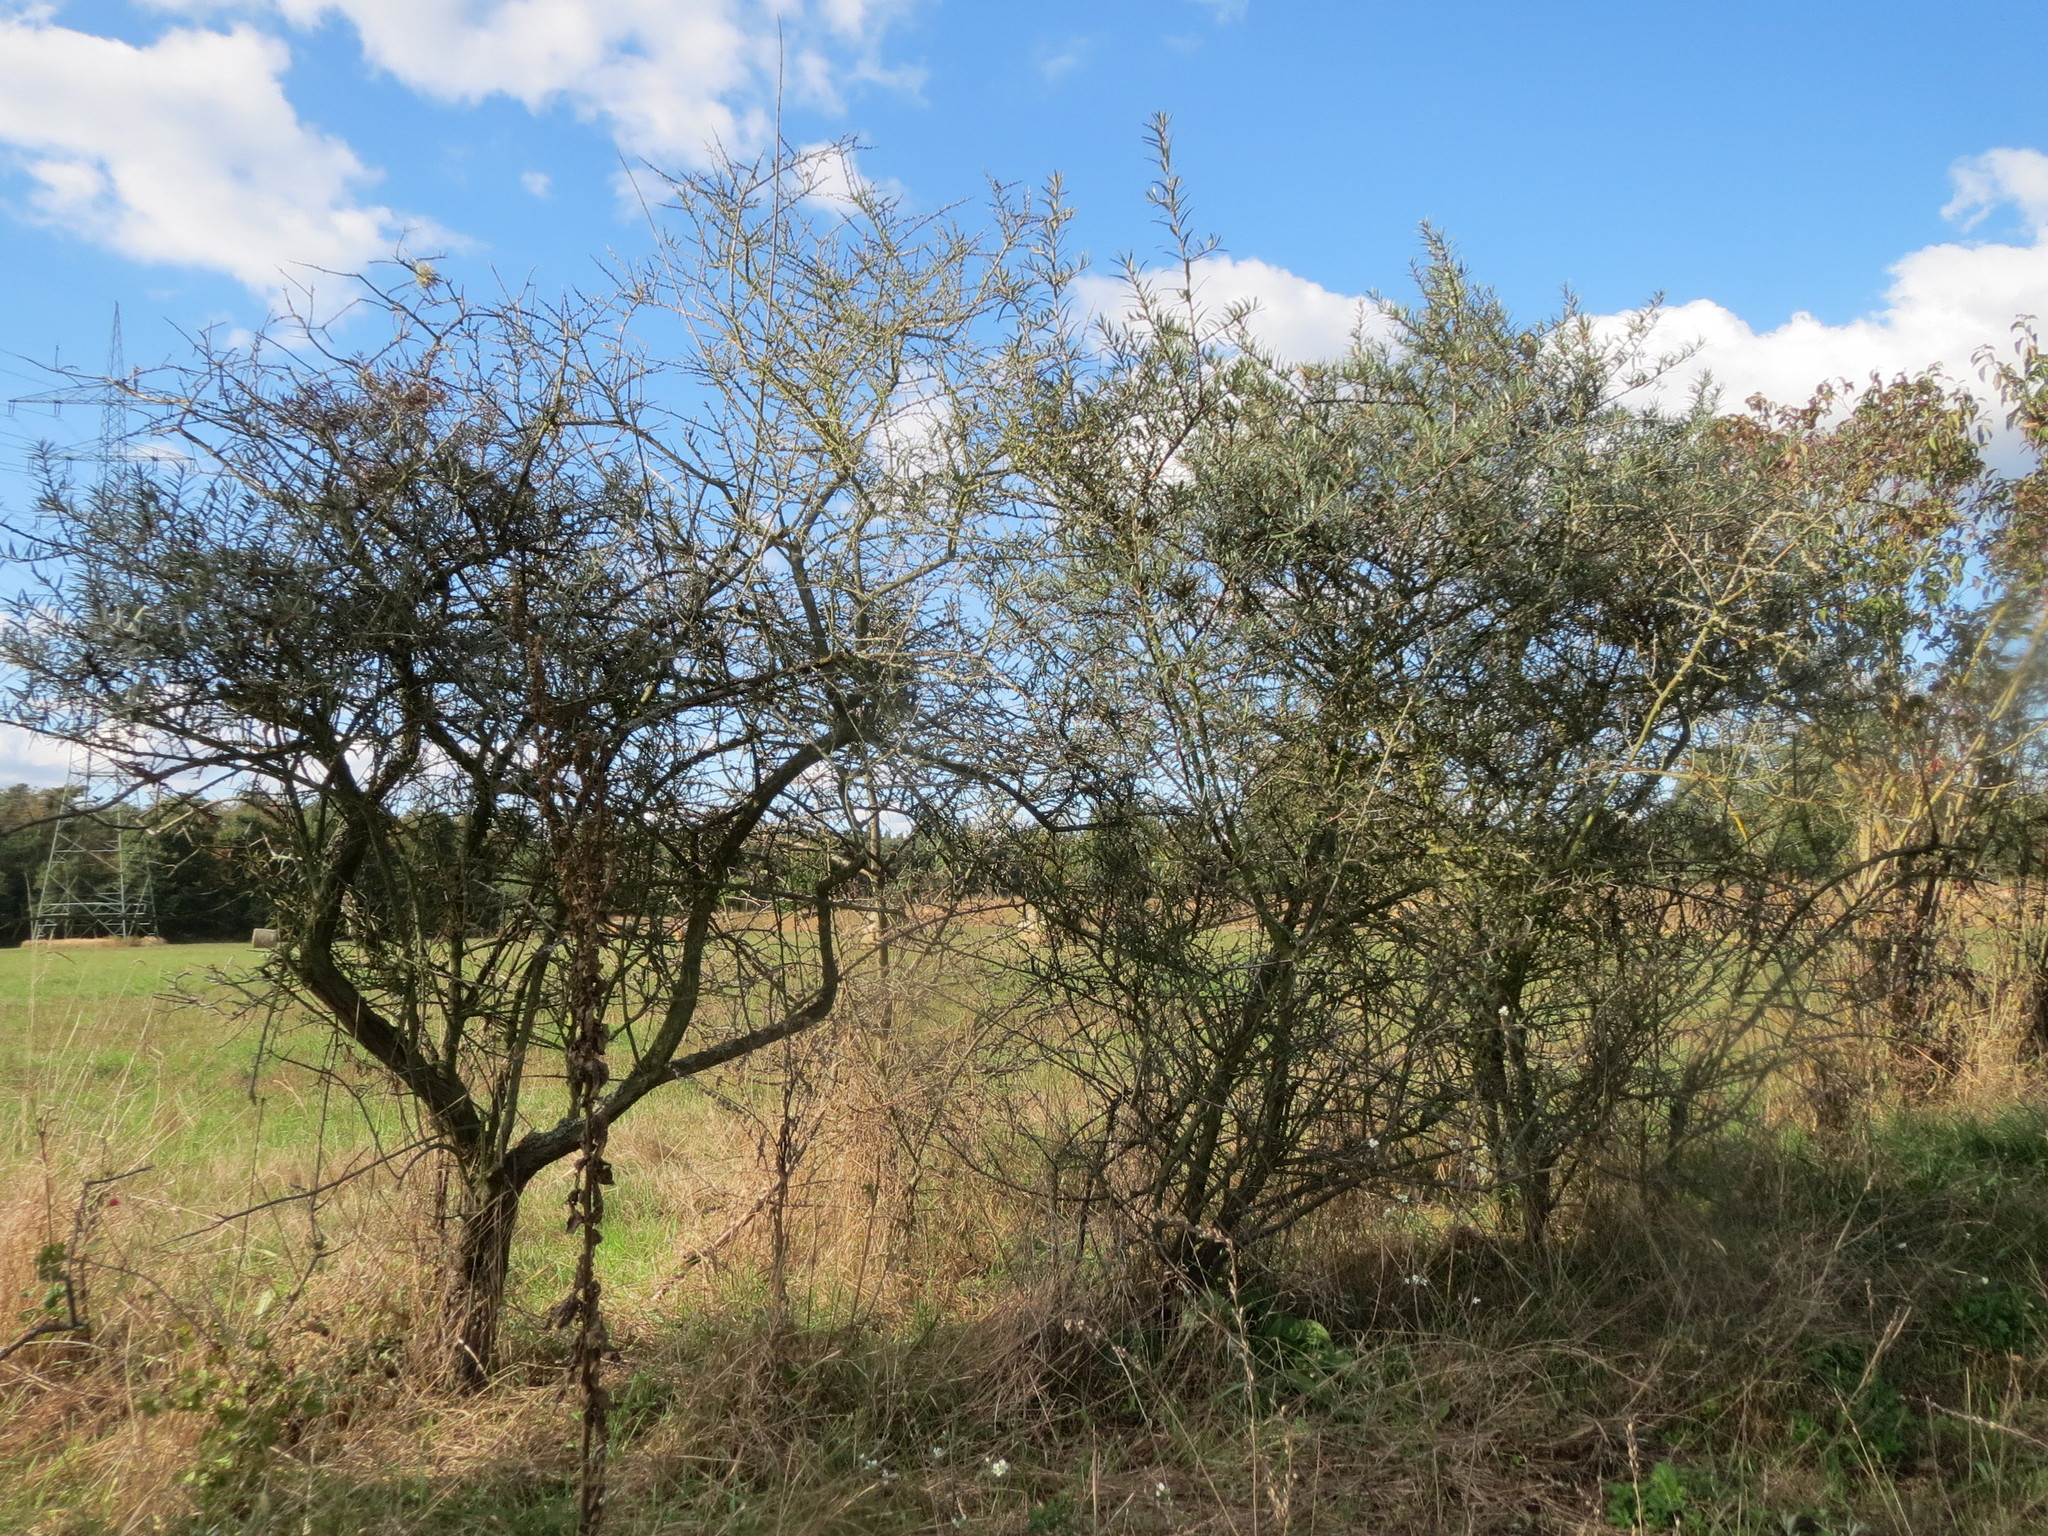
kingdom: Plantae
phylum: Tracheophyta
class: Magnoliopsida
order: Rosales
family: Elaeagnaceae
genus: Hippophae
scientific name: Hippophae rhamnoides
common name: Sea-buckthorn
